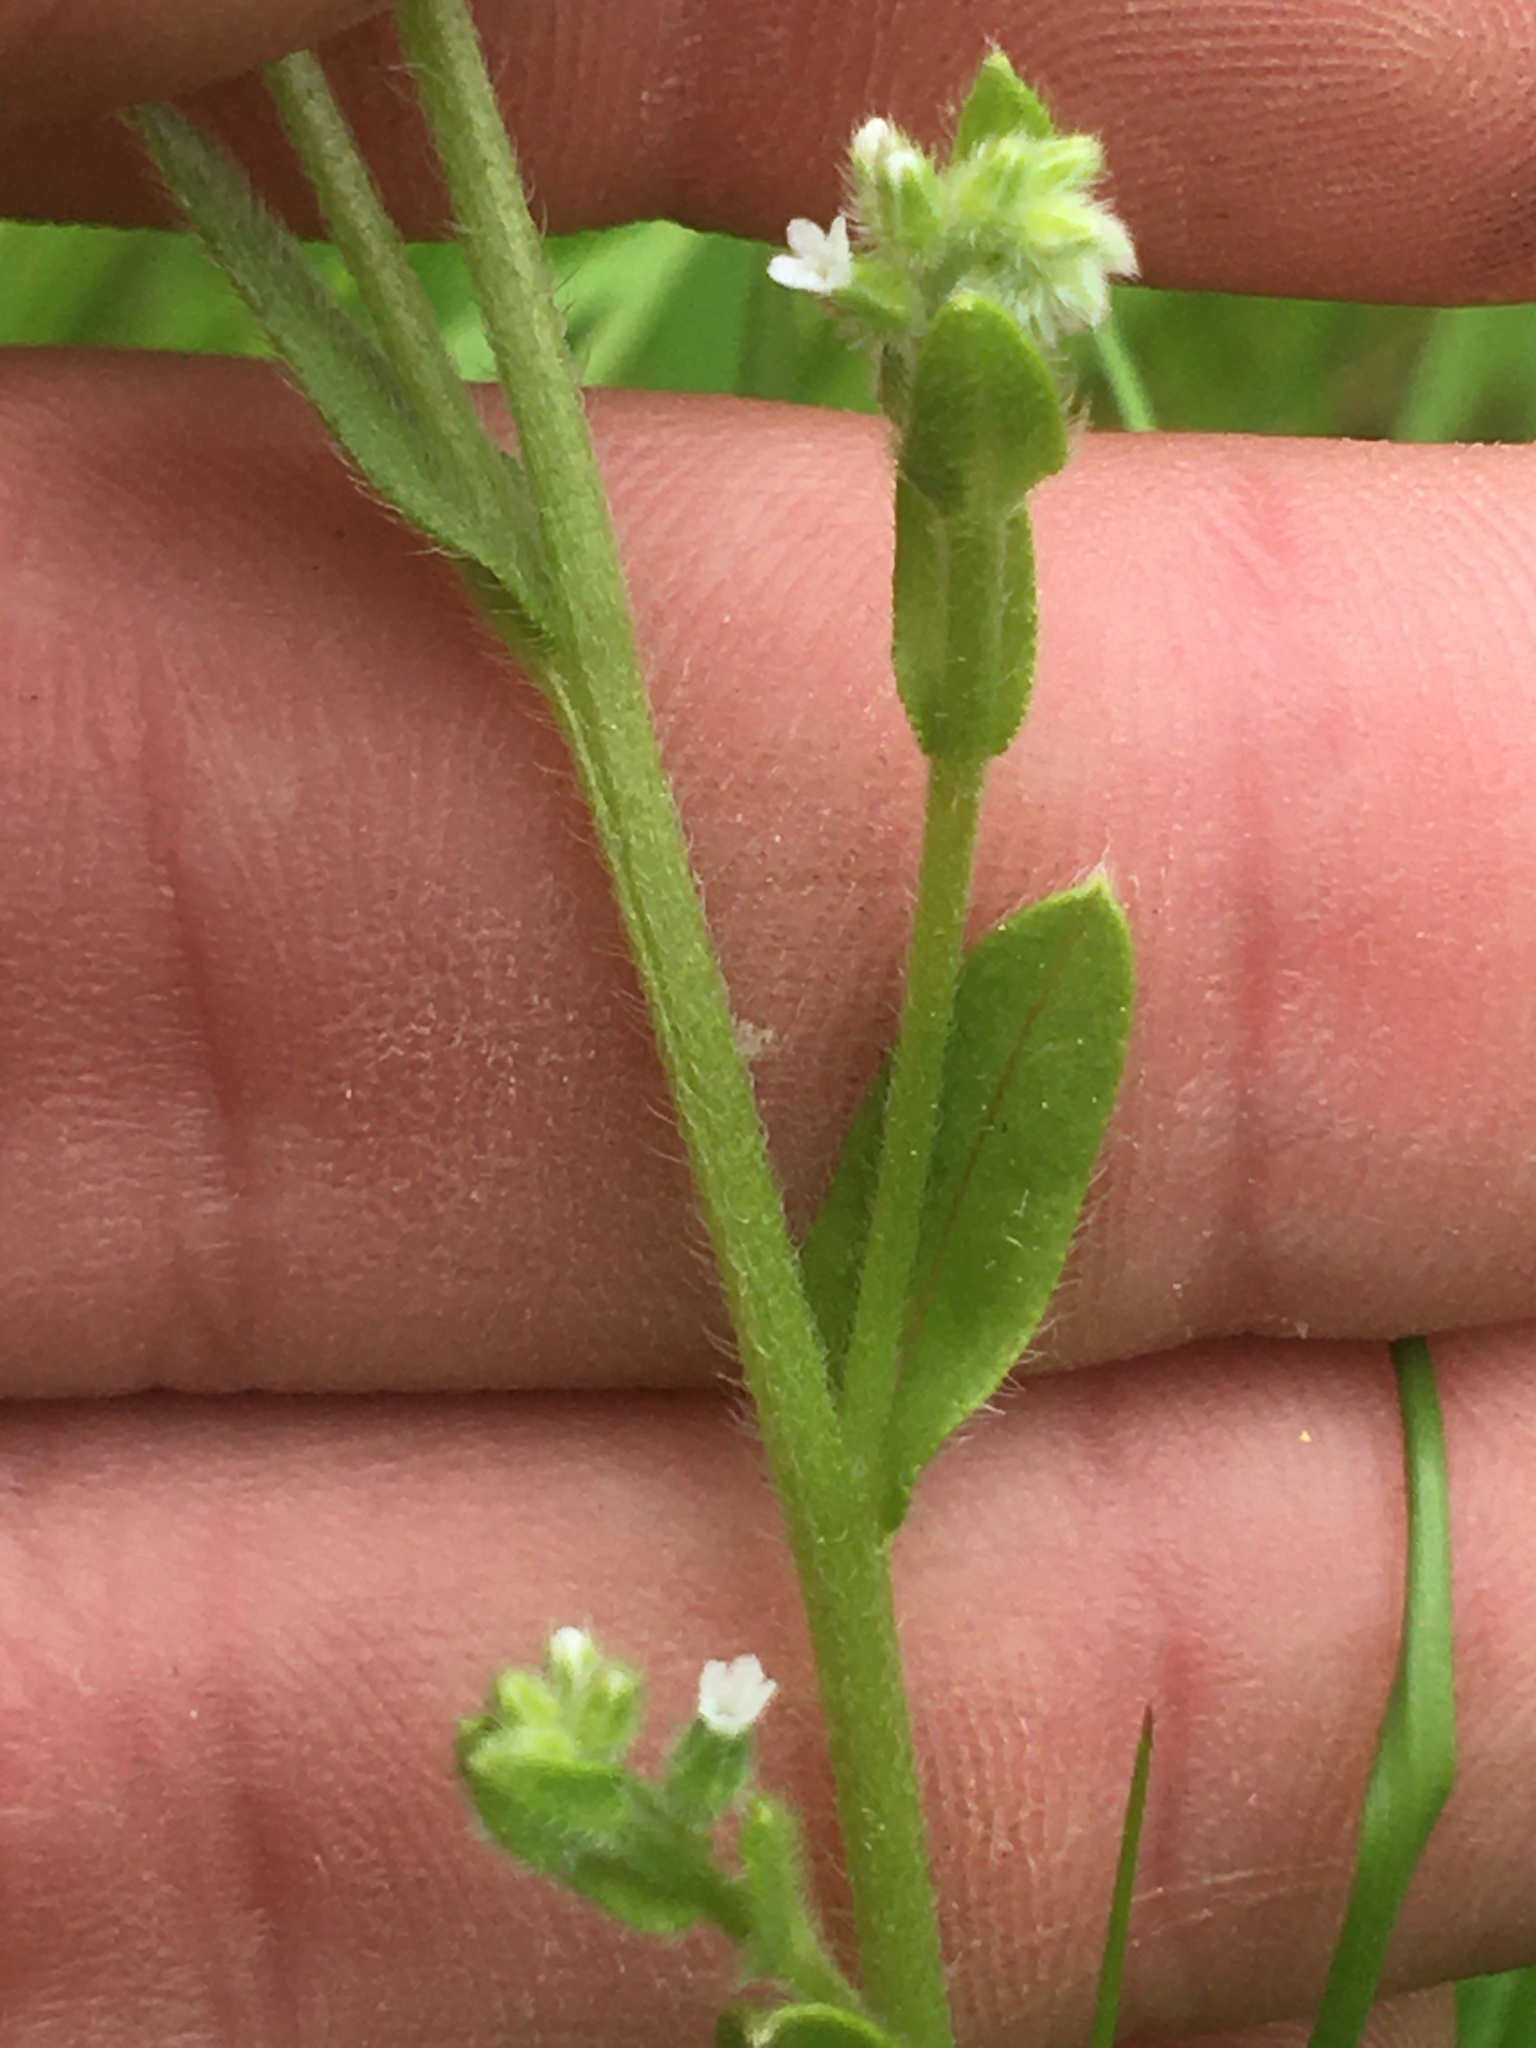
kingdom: Plantae
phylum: Tracheophyta
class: Magnoliopsida
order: Boraginales
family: Boraginaceae
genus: Myosotis
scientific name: Myosotis macrosperma
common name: Large-seed forget-me-not
